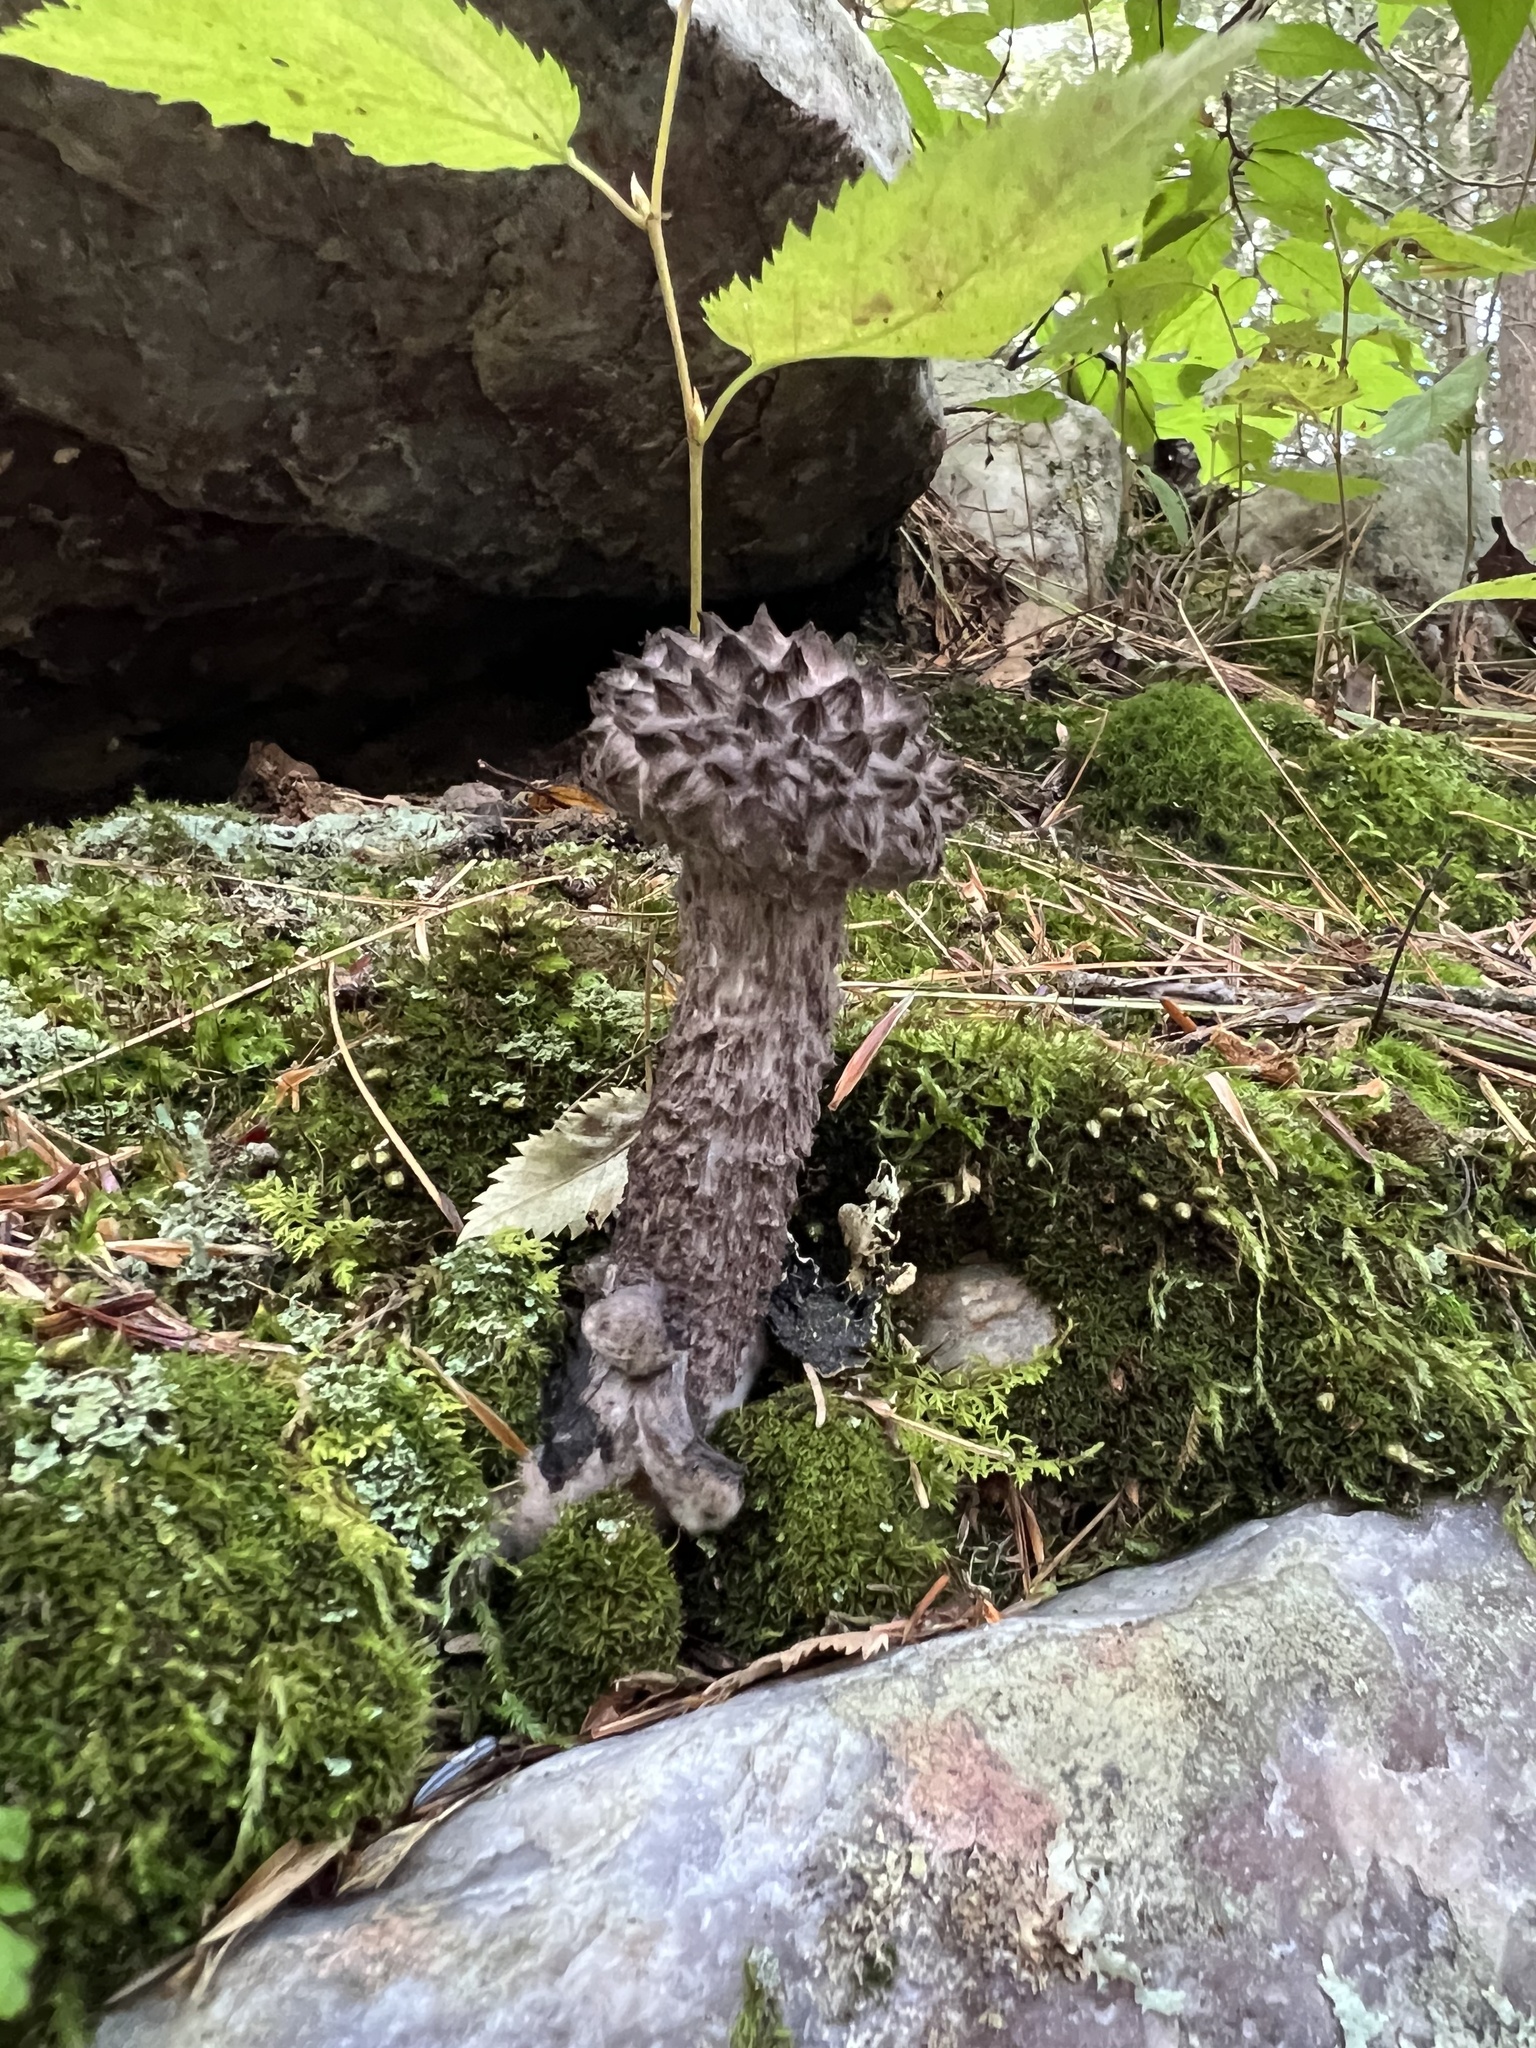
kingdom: Fungi
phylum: Basidiomycota
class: Agaricomycetes
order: Boletales
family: Boletaceae
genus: Strobilomyces
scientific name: Strobilomyces
